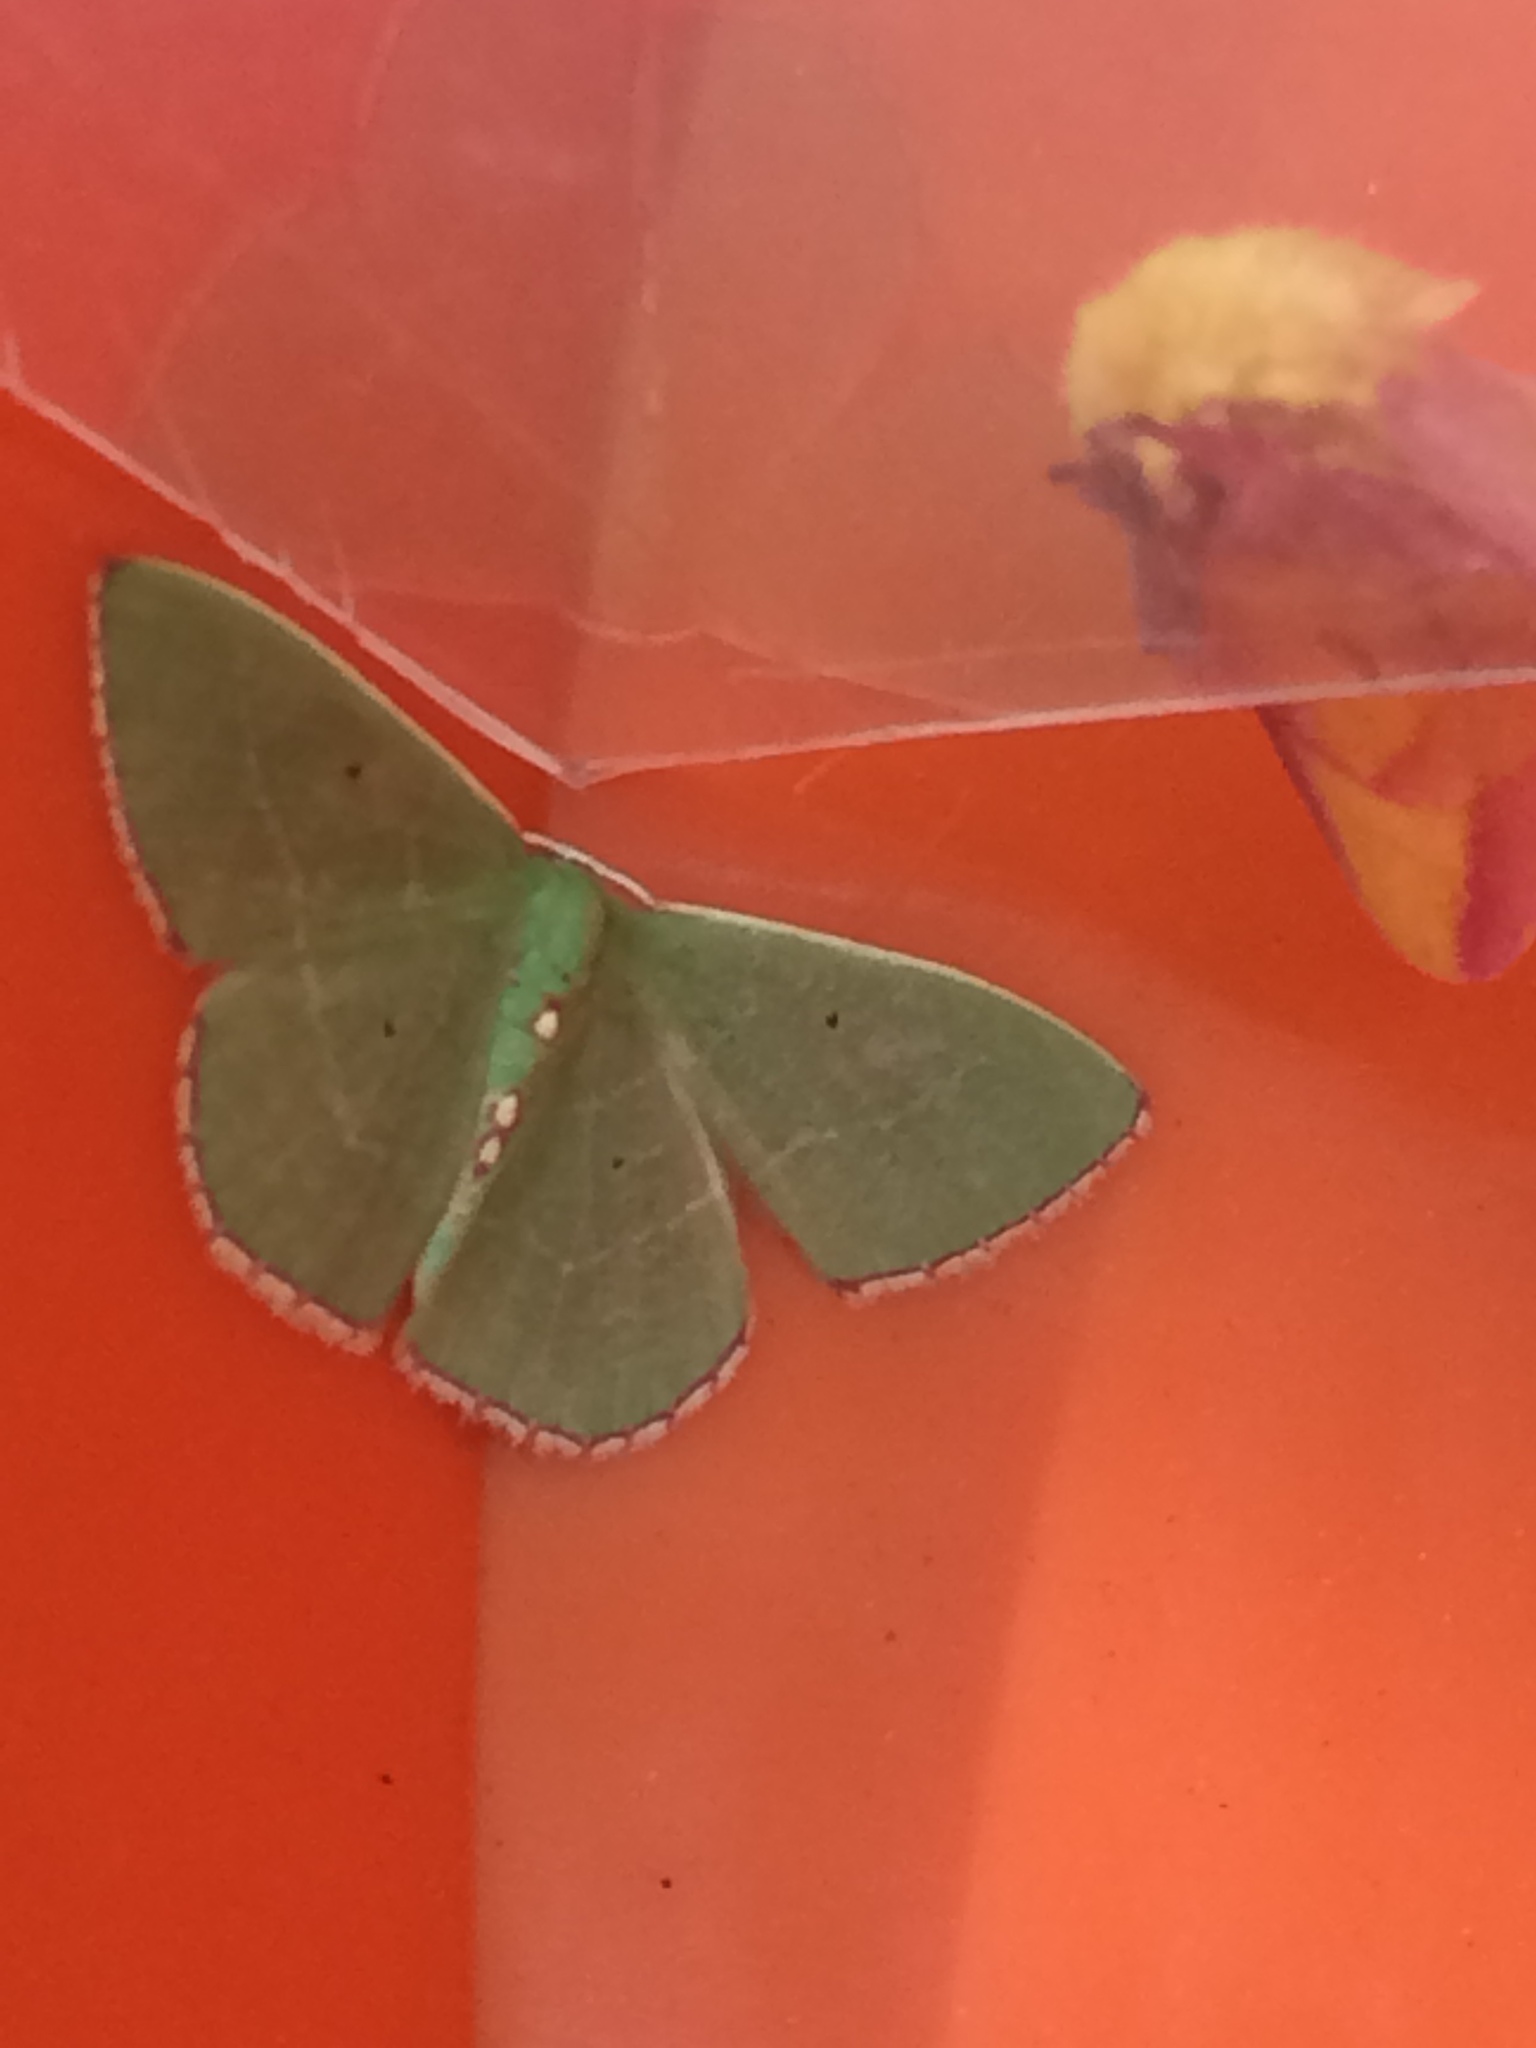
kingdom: Animalia
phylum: Arthropoda
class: Insecta
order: Lepidoptera
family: Geometridae
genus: Nemoria
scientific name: Nemoria lixaria
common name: Red-bordered emerald
